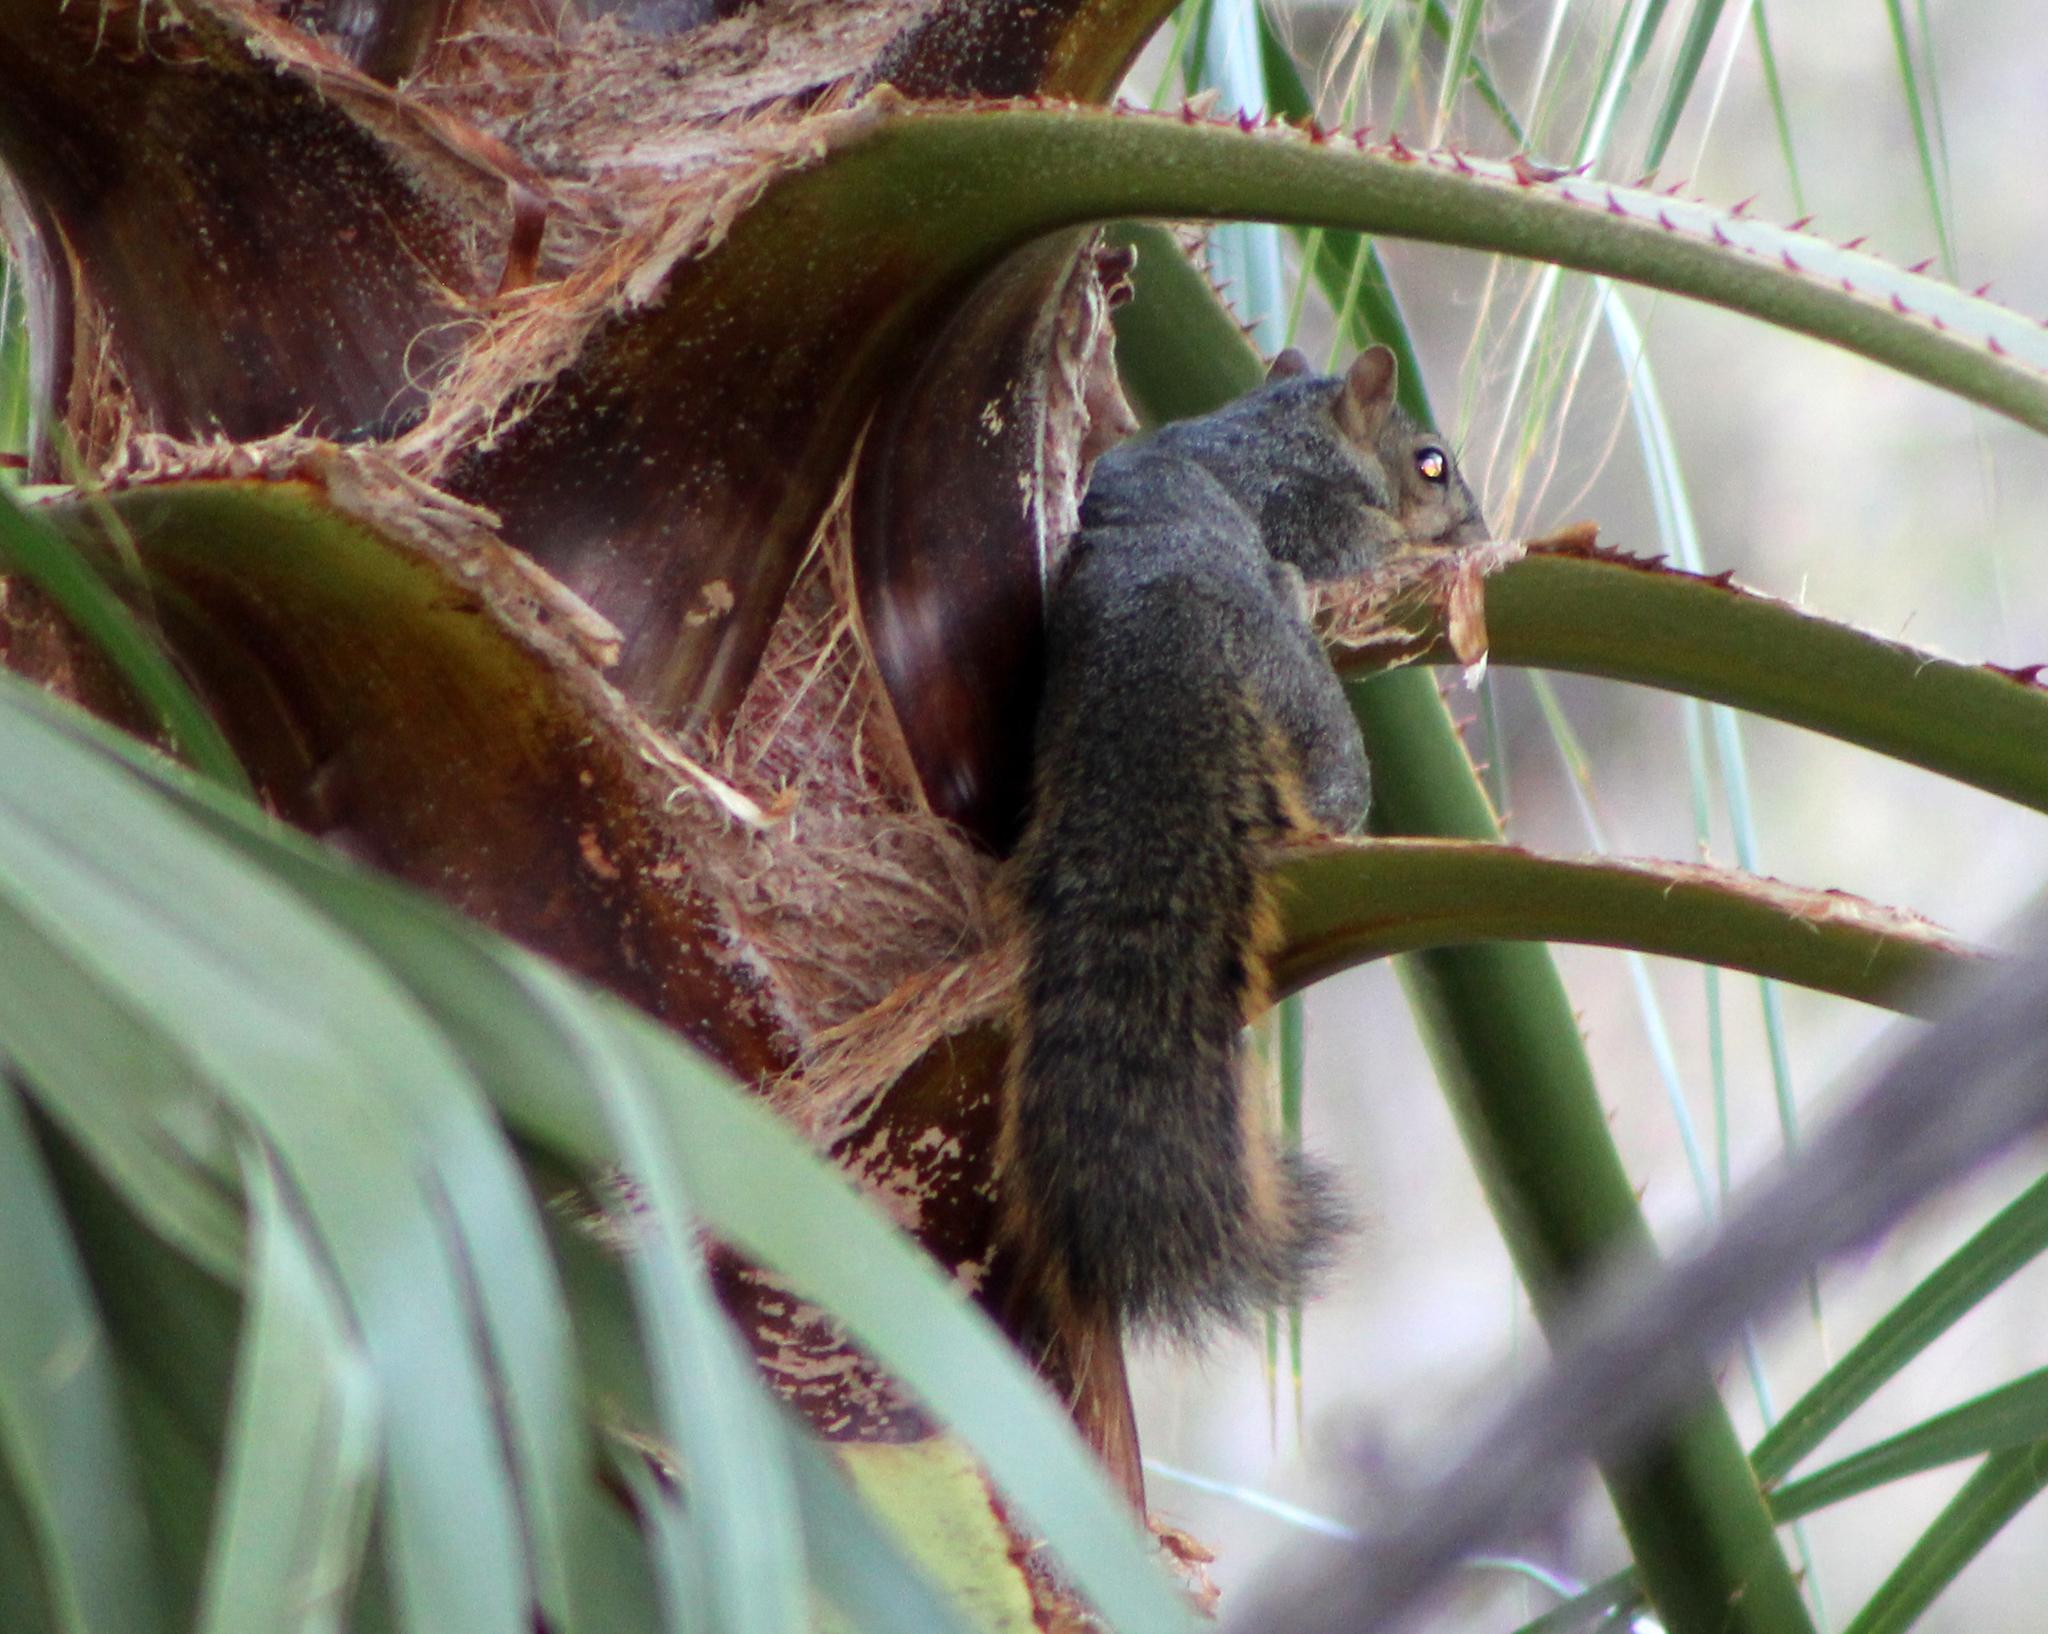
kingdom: Animalia
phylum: Chordata
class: Mammalia
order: Rodentia
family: Sciuridae
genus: Sciurus
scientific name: Sciurus niger
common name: Fox squirrel
